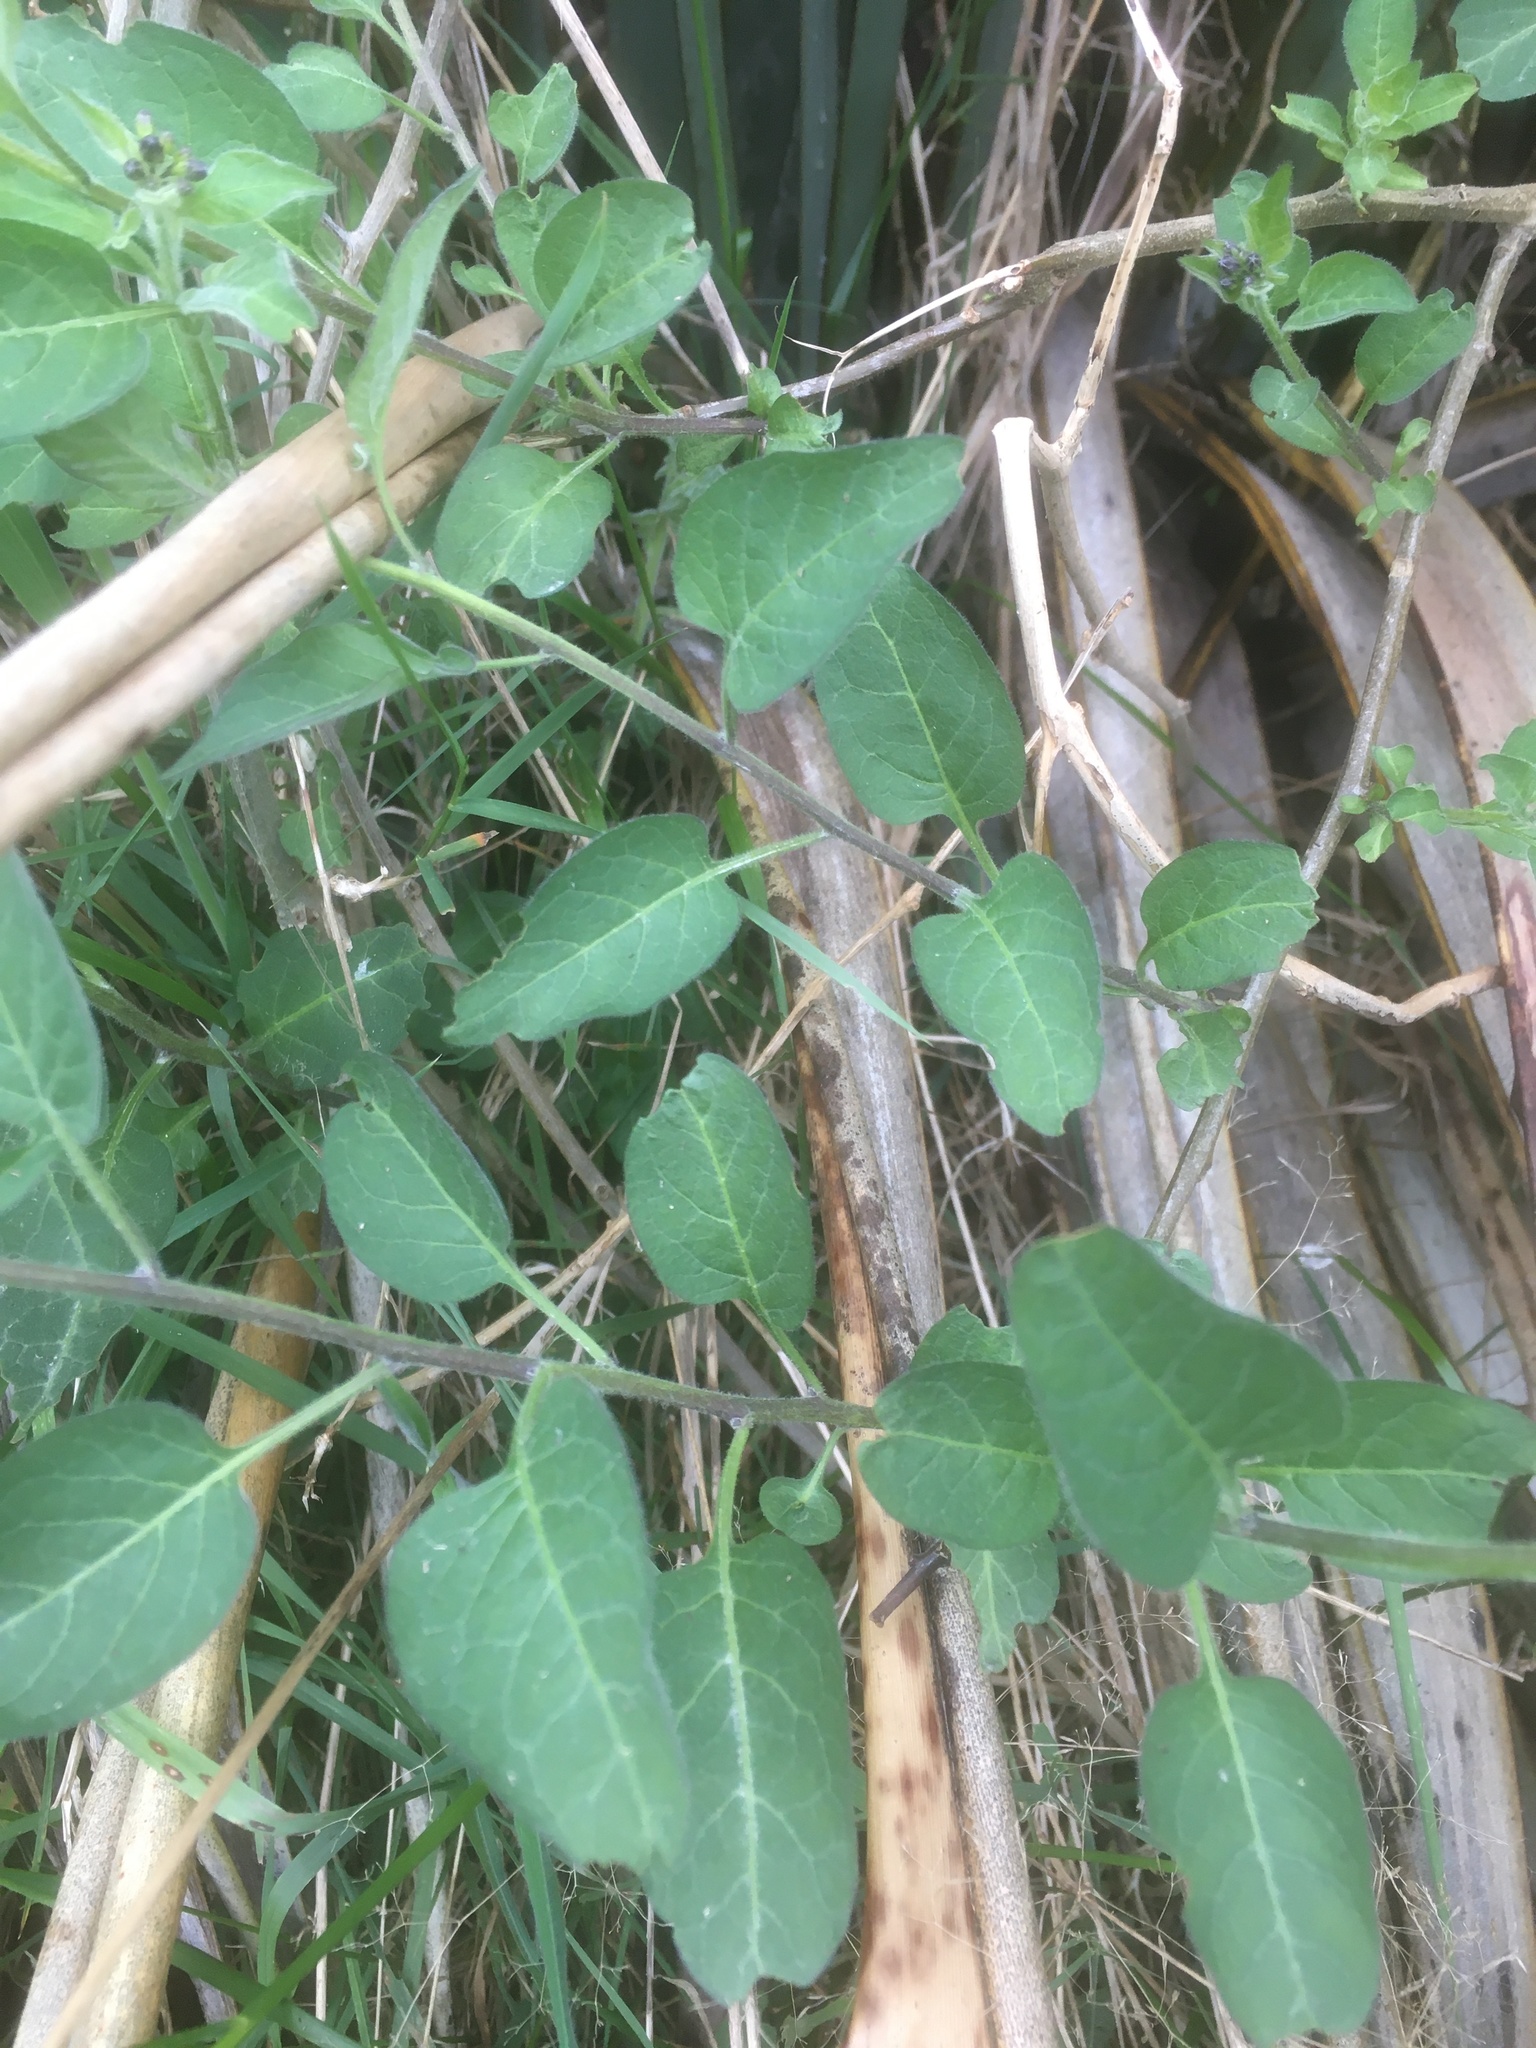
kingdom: Plantae
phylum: Tracheophyta
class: Magnoliopsida
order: Solanales
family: Solanaceae
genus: Solanum
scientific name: Solanum dulcamara
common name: Climbing nightshade
